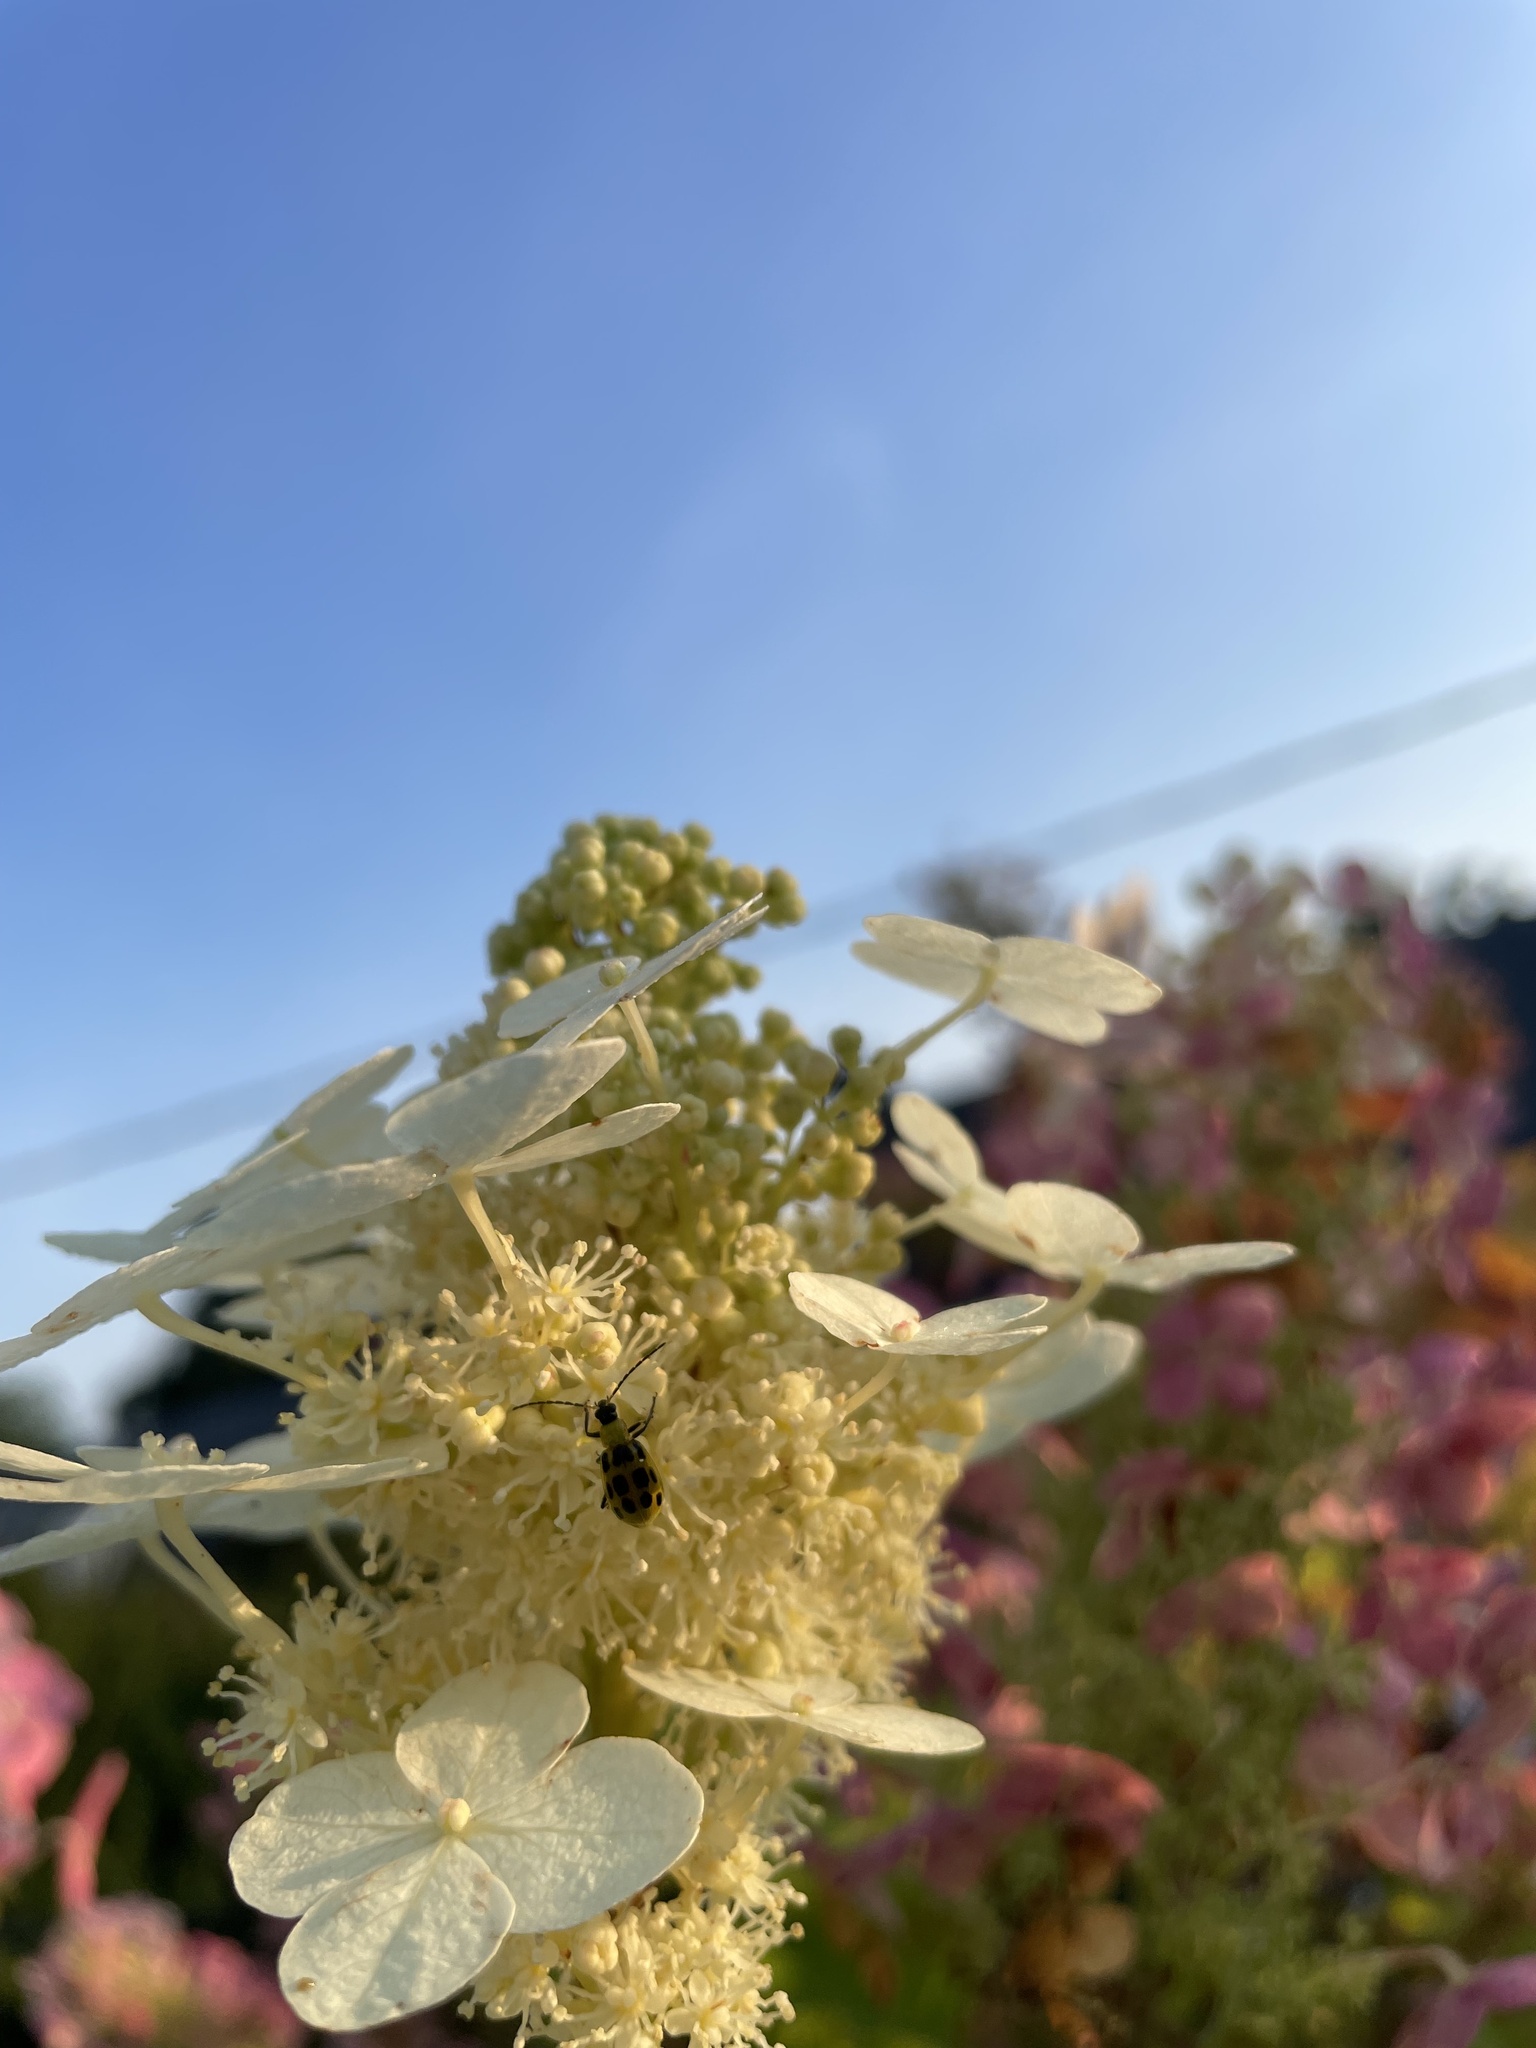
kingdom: Animalia
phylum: Arthropoda
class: Insecta
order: Coleoptera
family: Chrysomelidae
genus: Diabrotica
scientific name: Diabrotica undecimpunctata
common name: Spotted cucumber beetle
